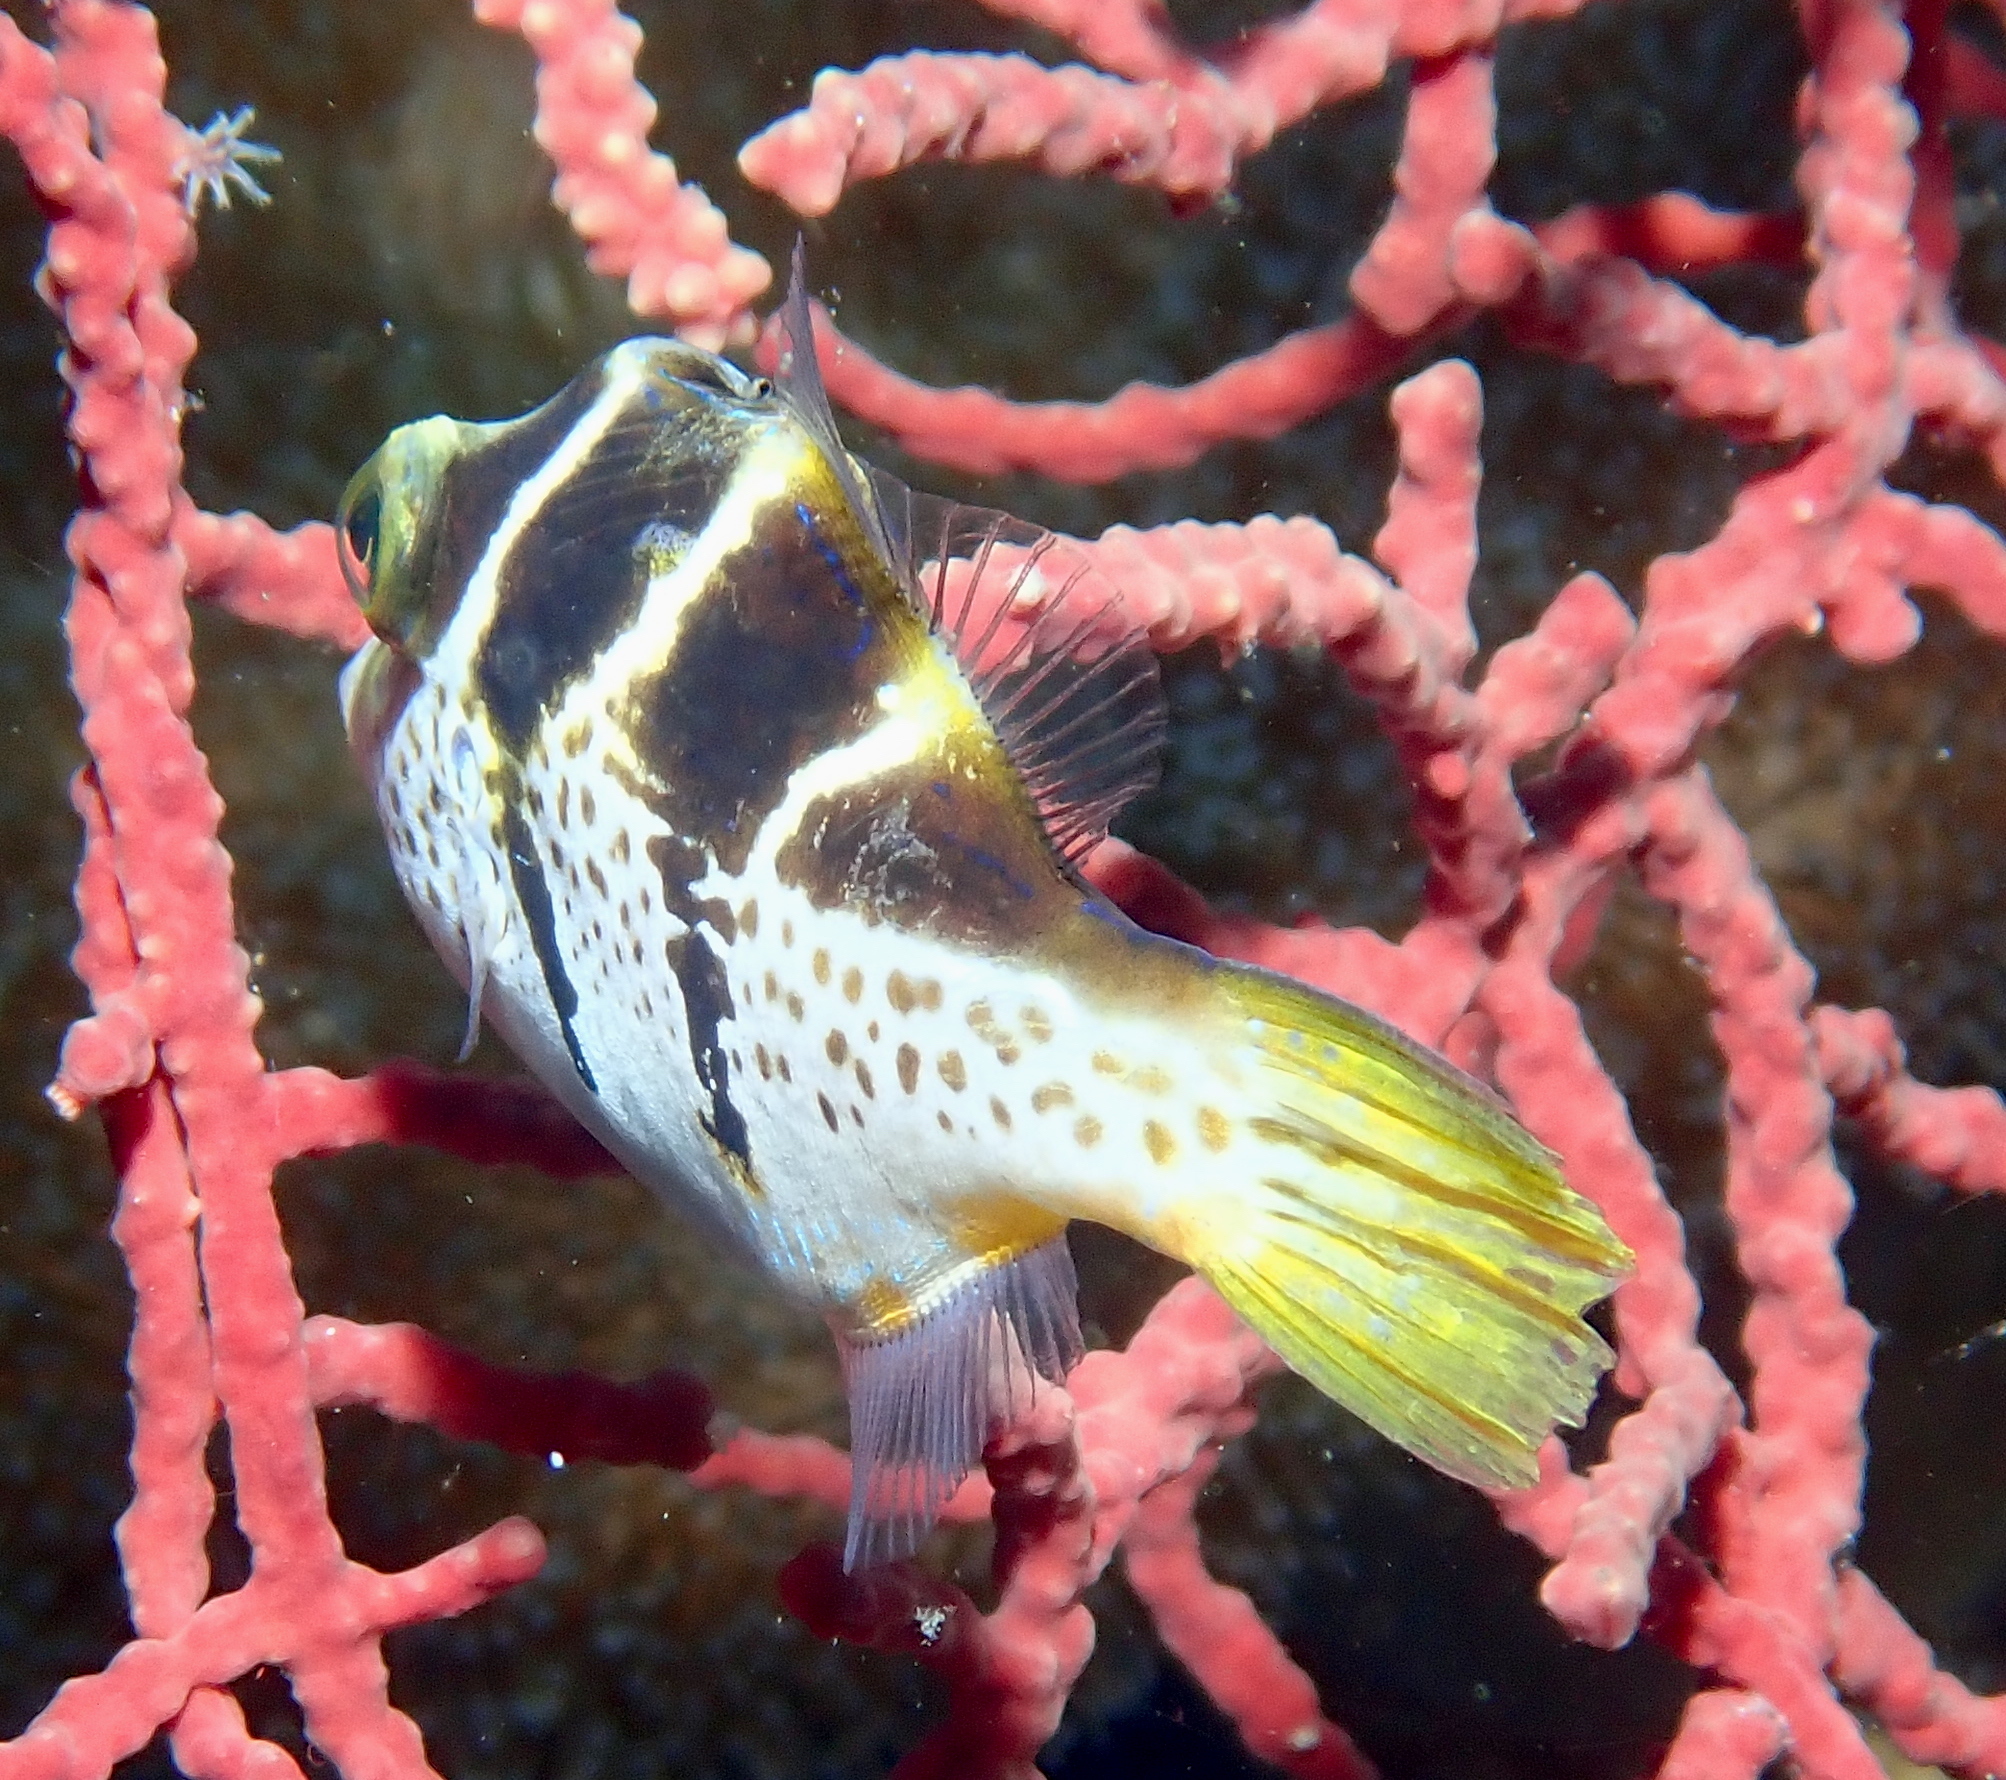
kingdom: Animalia
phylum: Chordata
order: Tetraodontiformes
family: Monacanthidae
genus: Paraluteres
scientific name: Paraluteres prionurus
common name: Black-saddled leatherjacket
